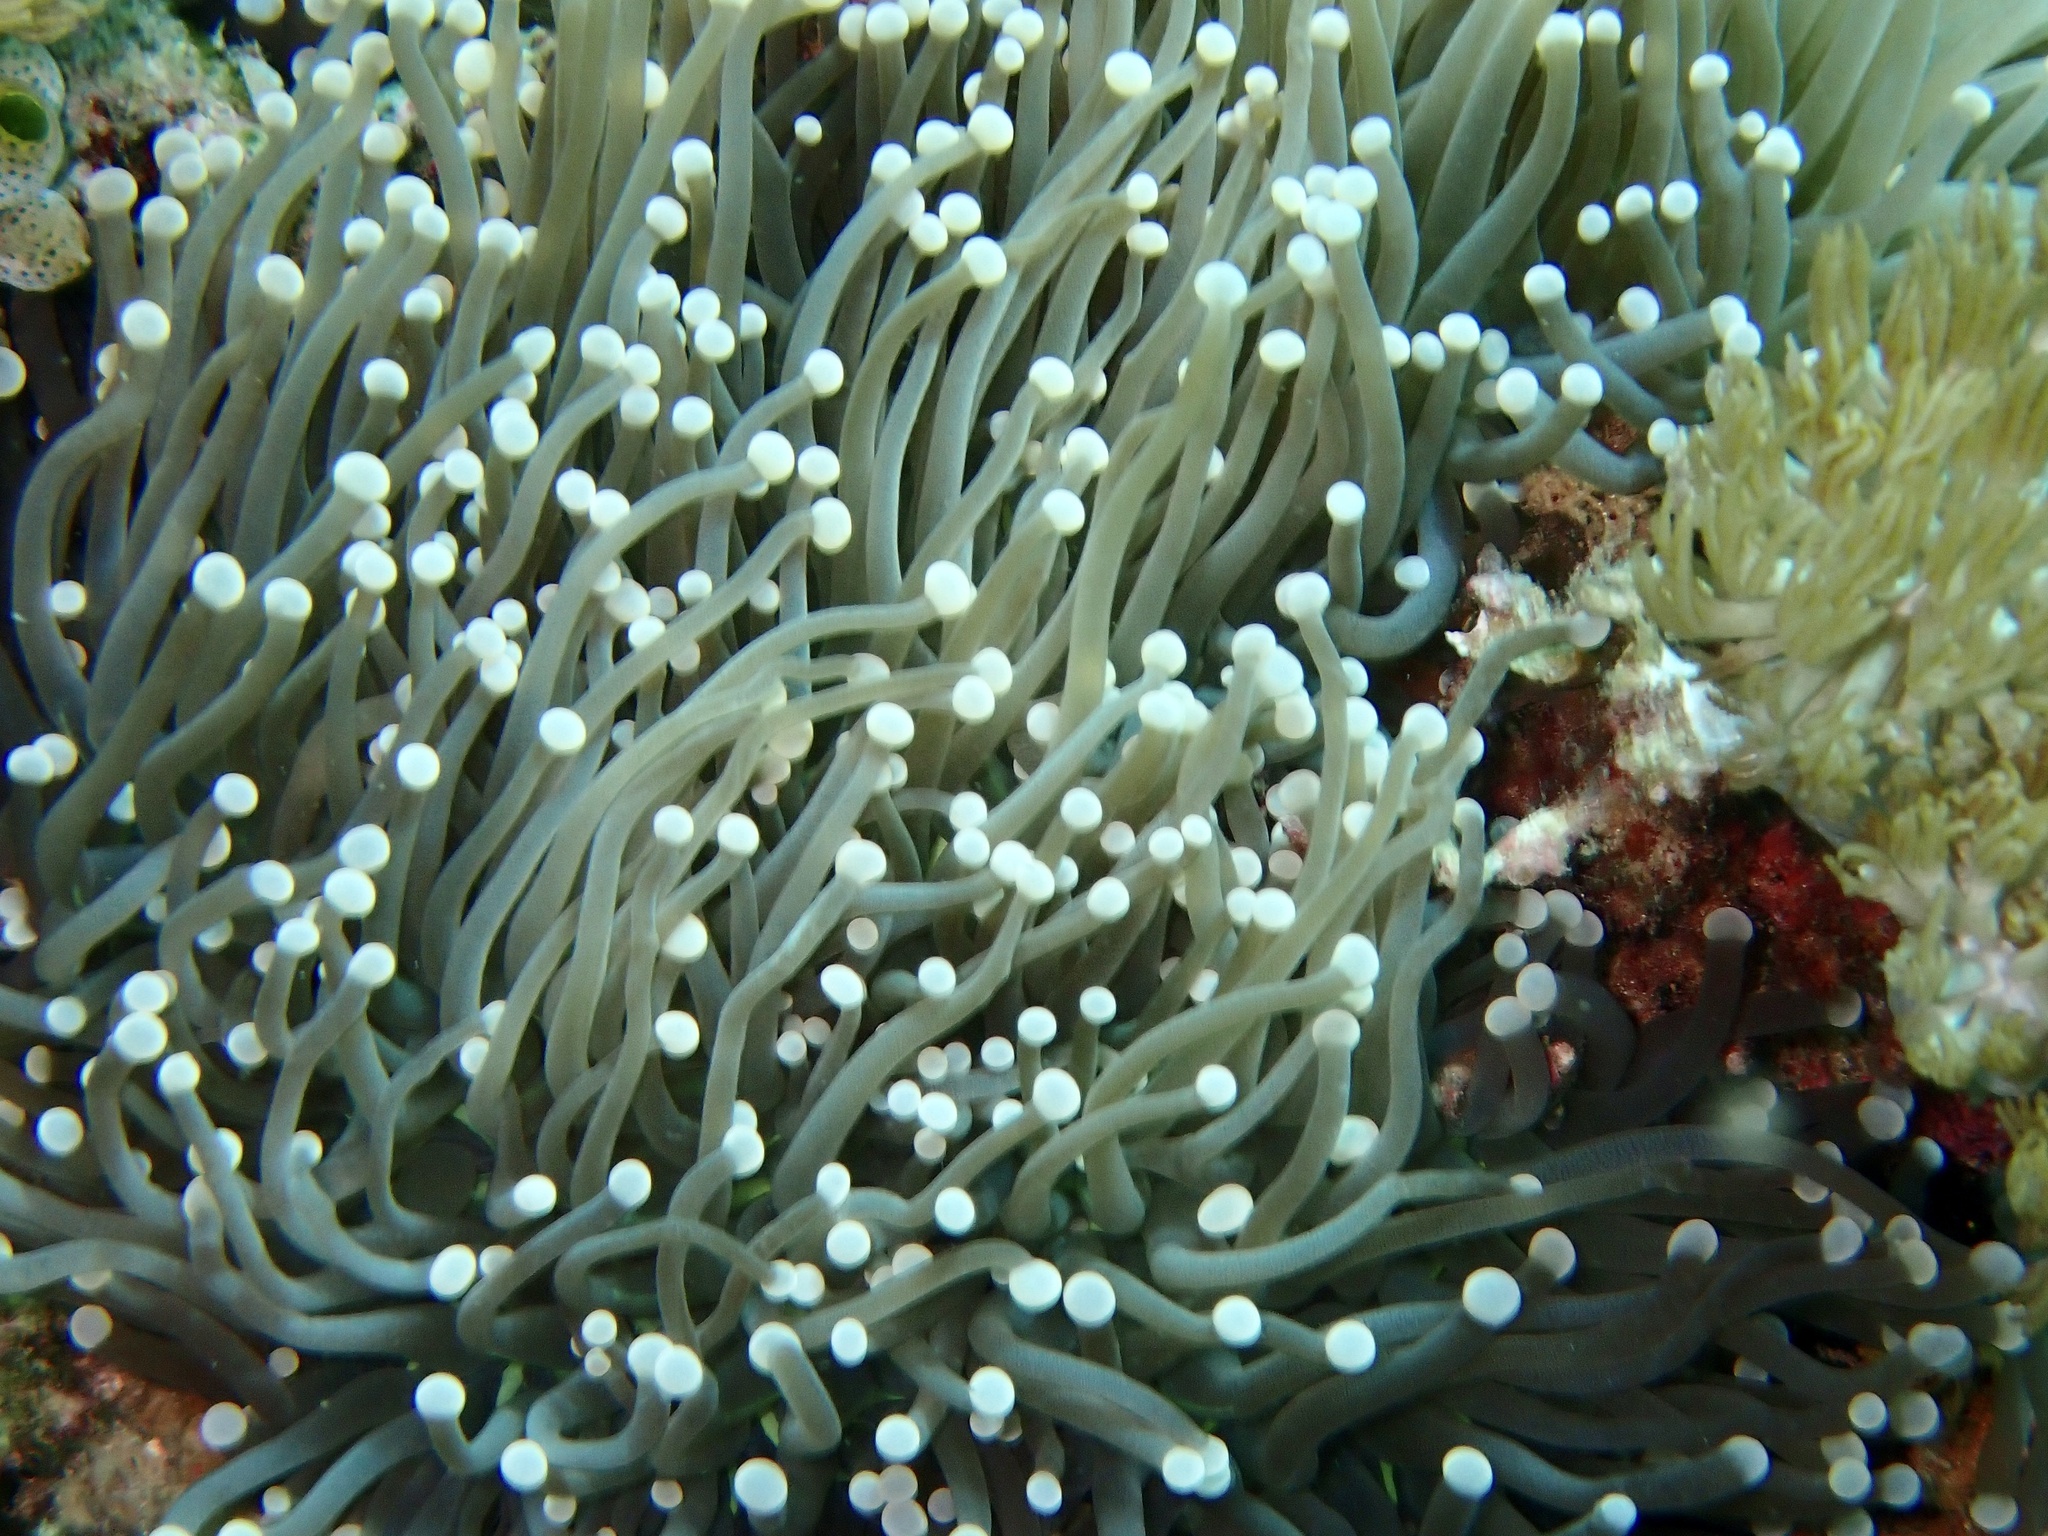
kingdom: Animalia
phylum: Cnidaria
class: Anthozoa
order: Scleractinia
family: Euphylliidae
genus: Euphyllia
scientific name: Euphyllia glabrescens
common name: Joker coral
